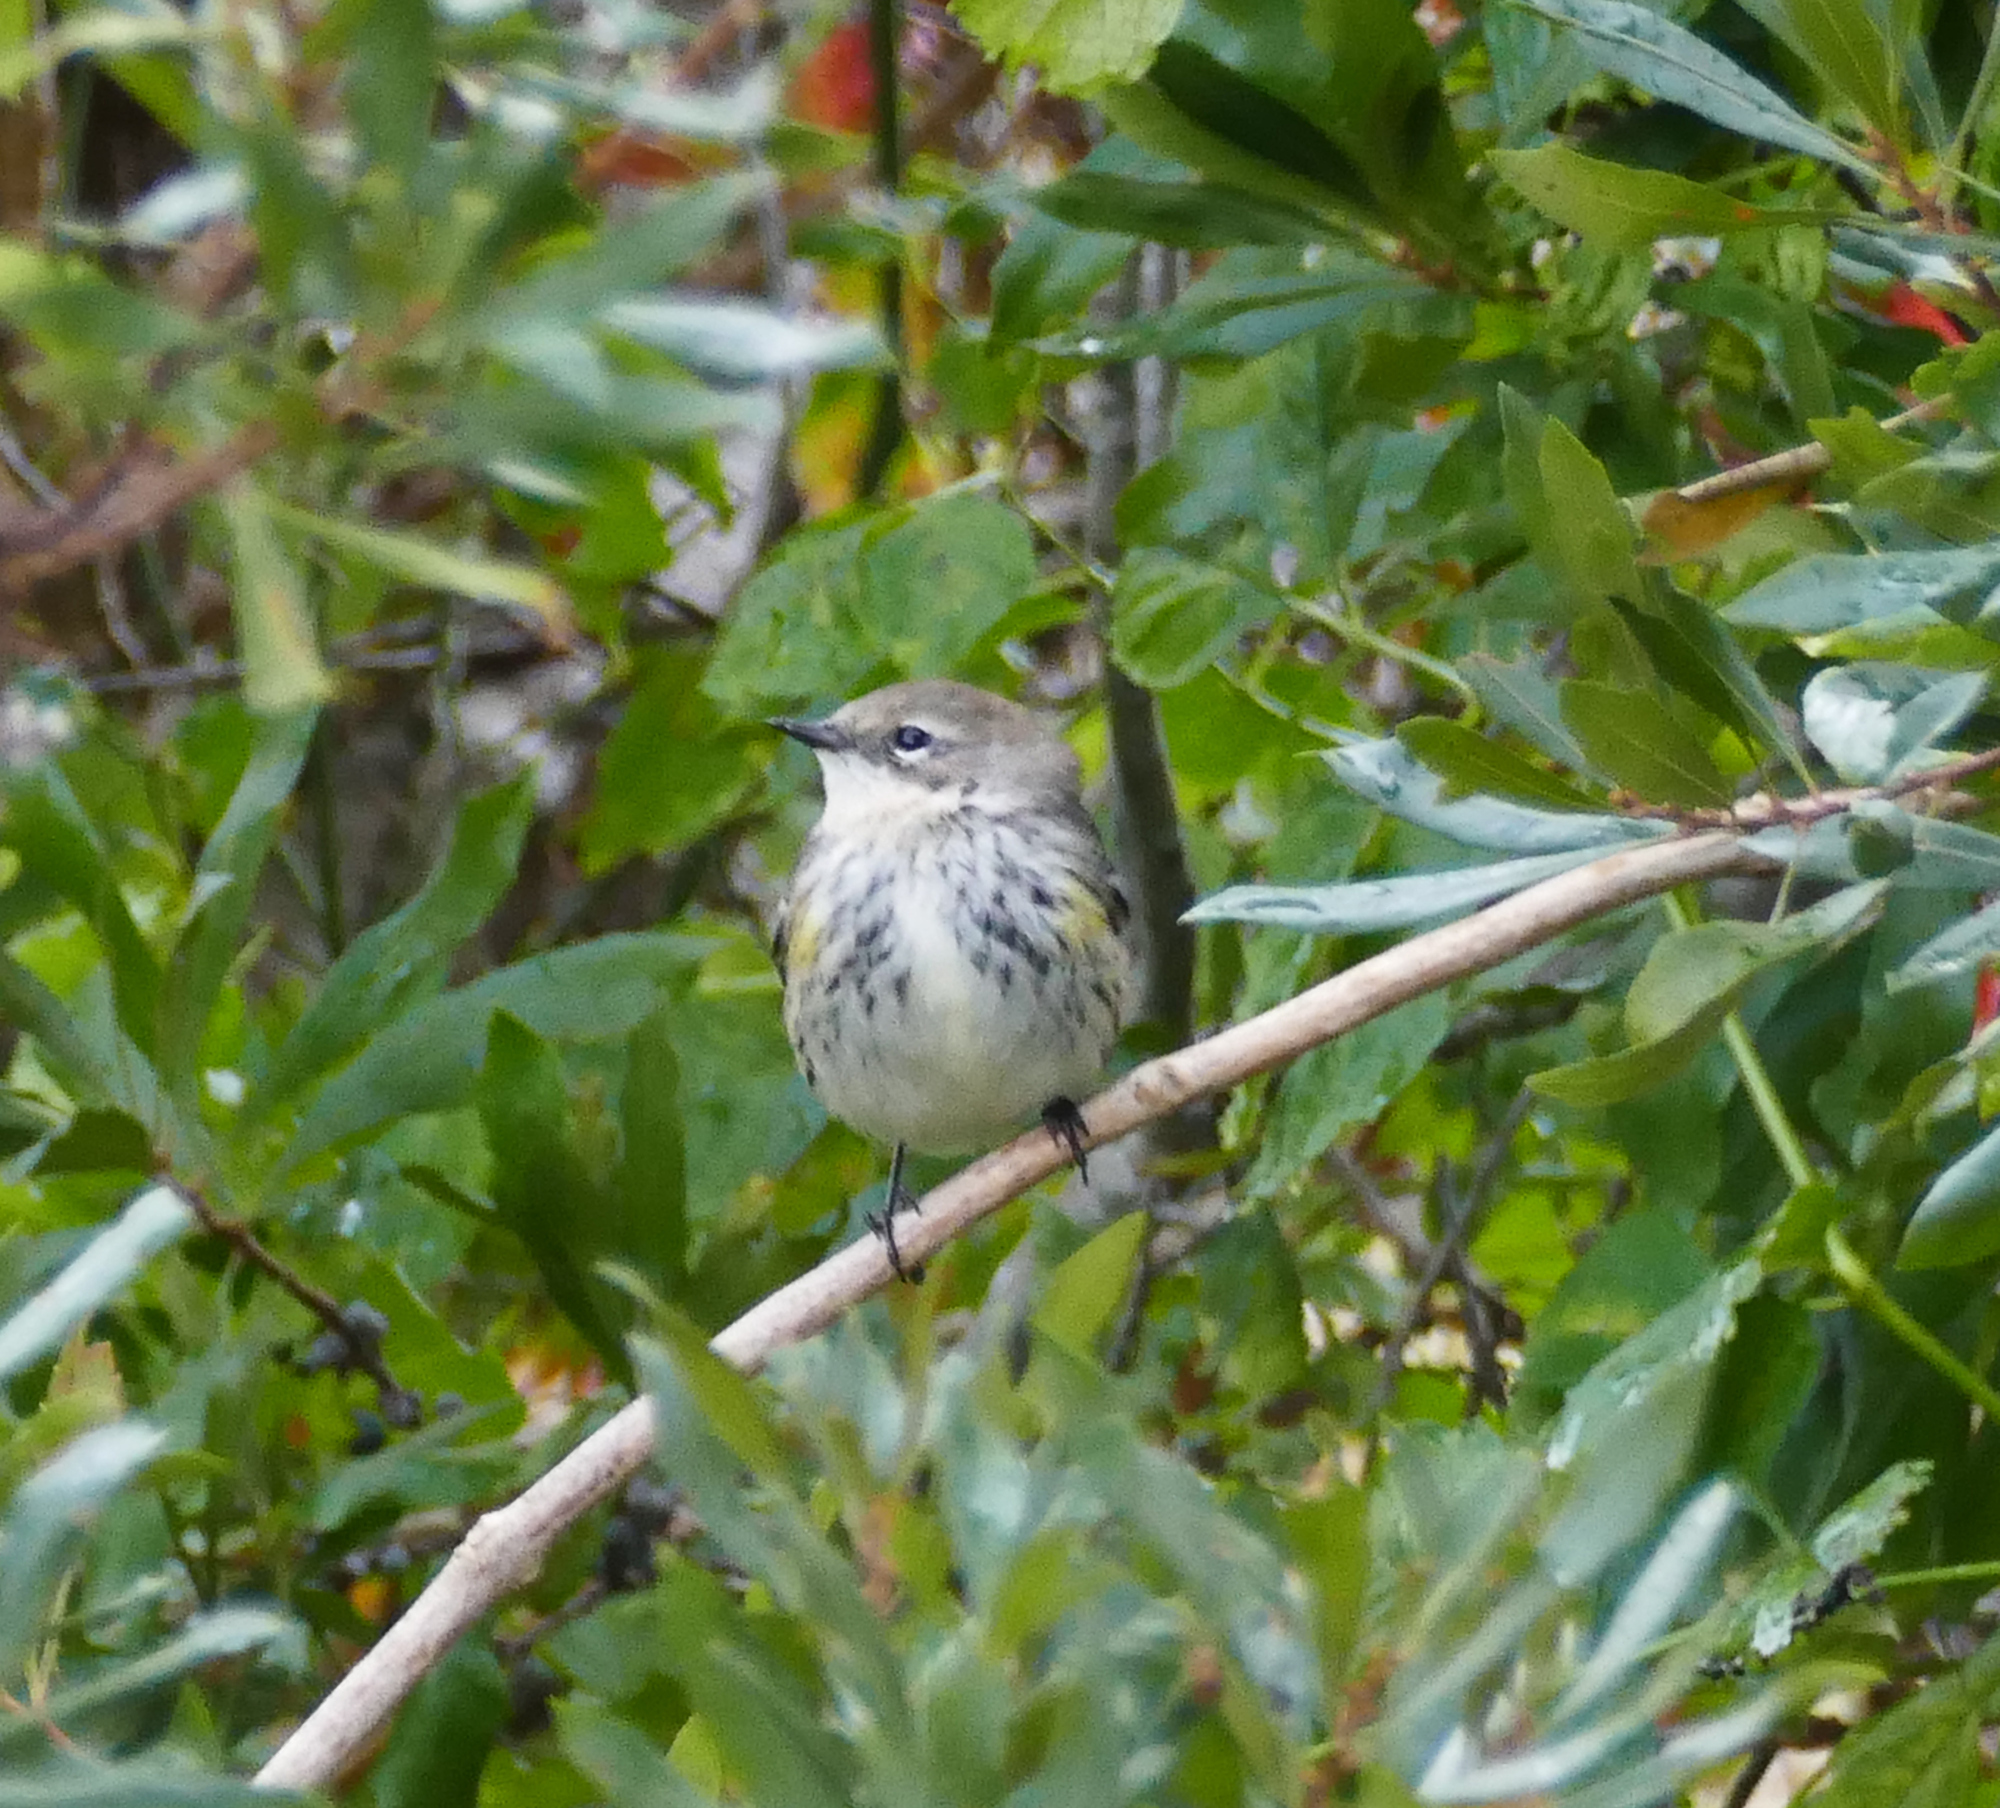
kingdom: Animalia
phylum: Chordata
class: Aves
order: Passeriformes
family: Parulidae
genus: Setophaga
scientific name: Setophaga coronata
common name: Myrtle warbler
